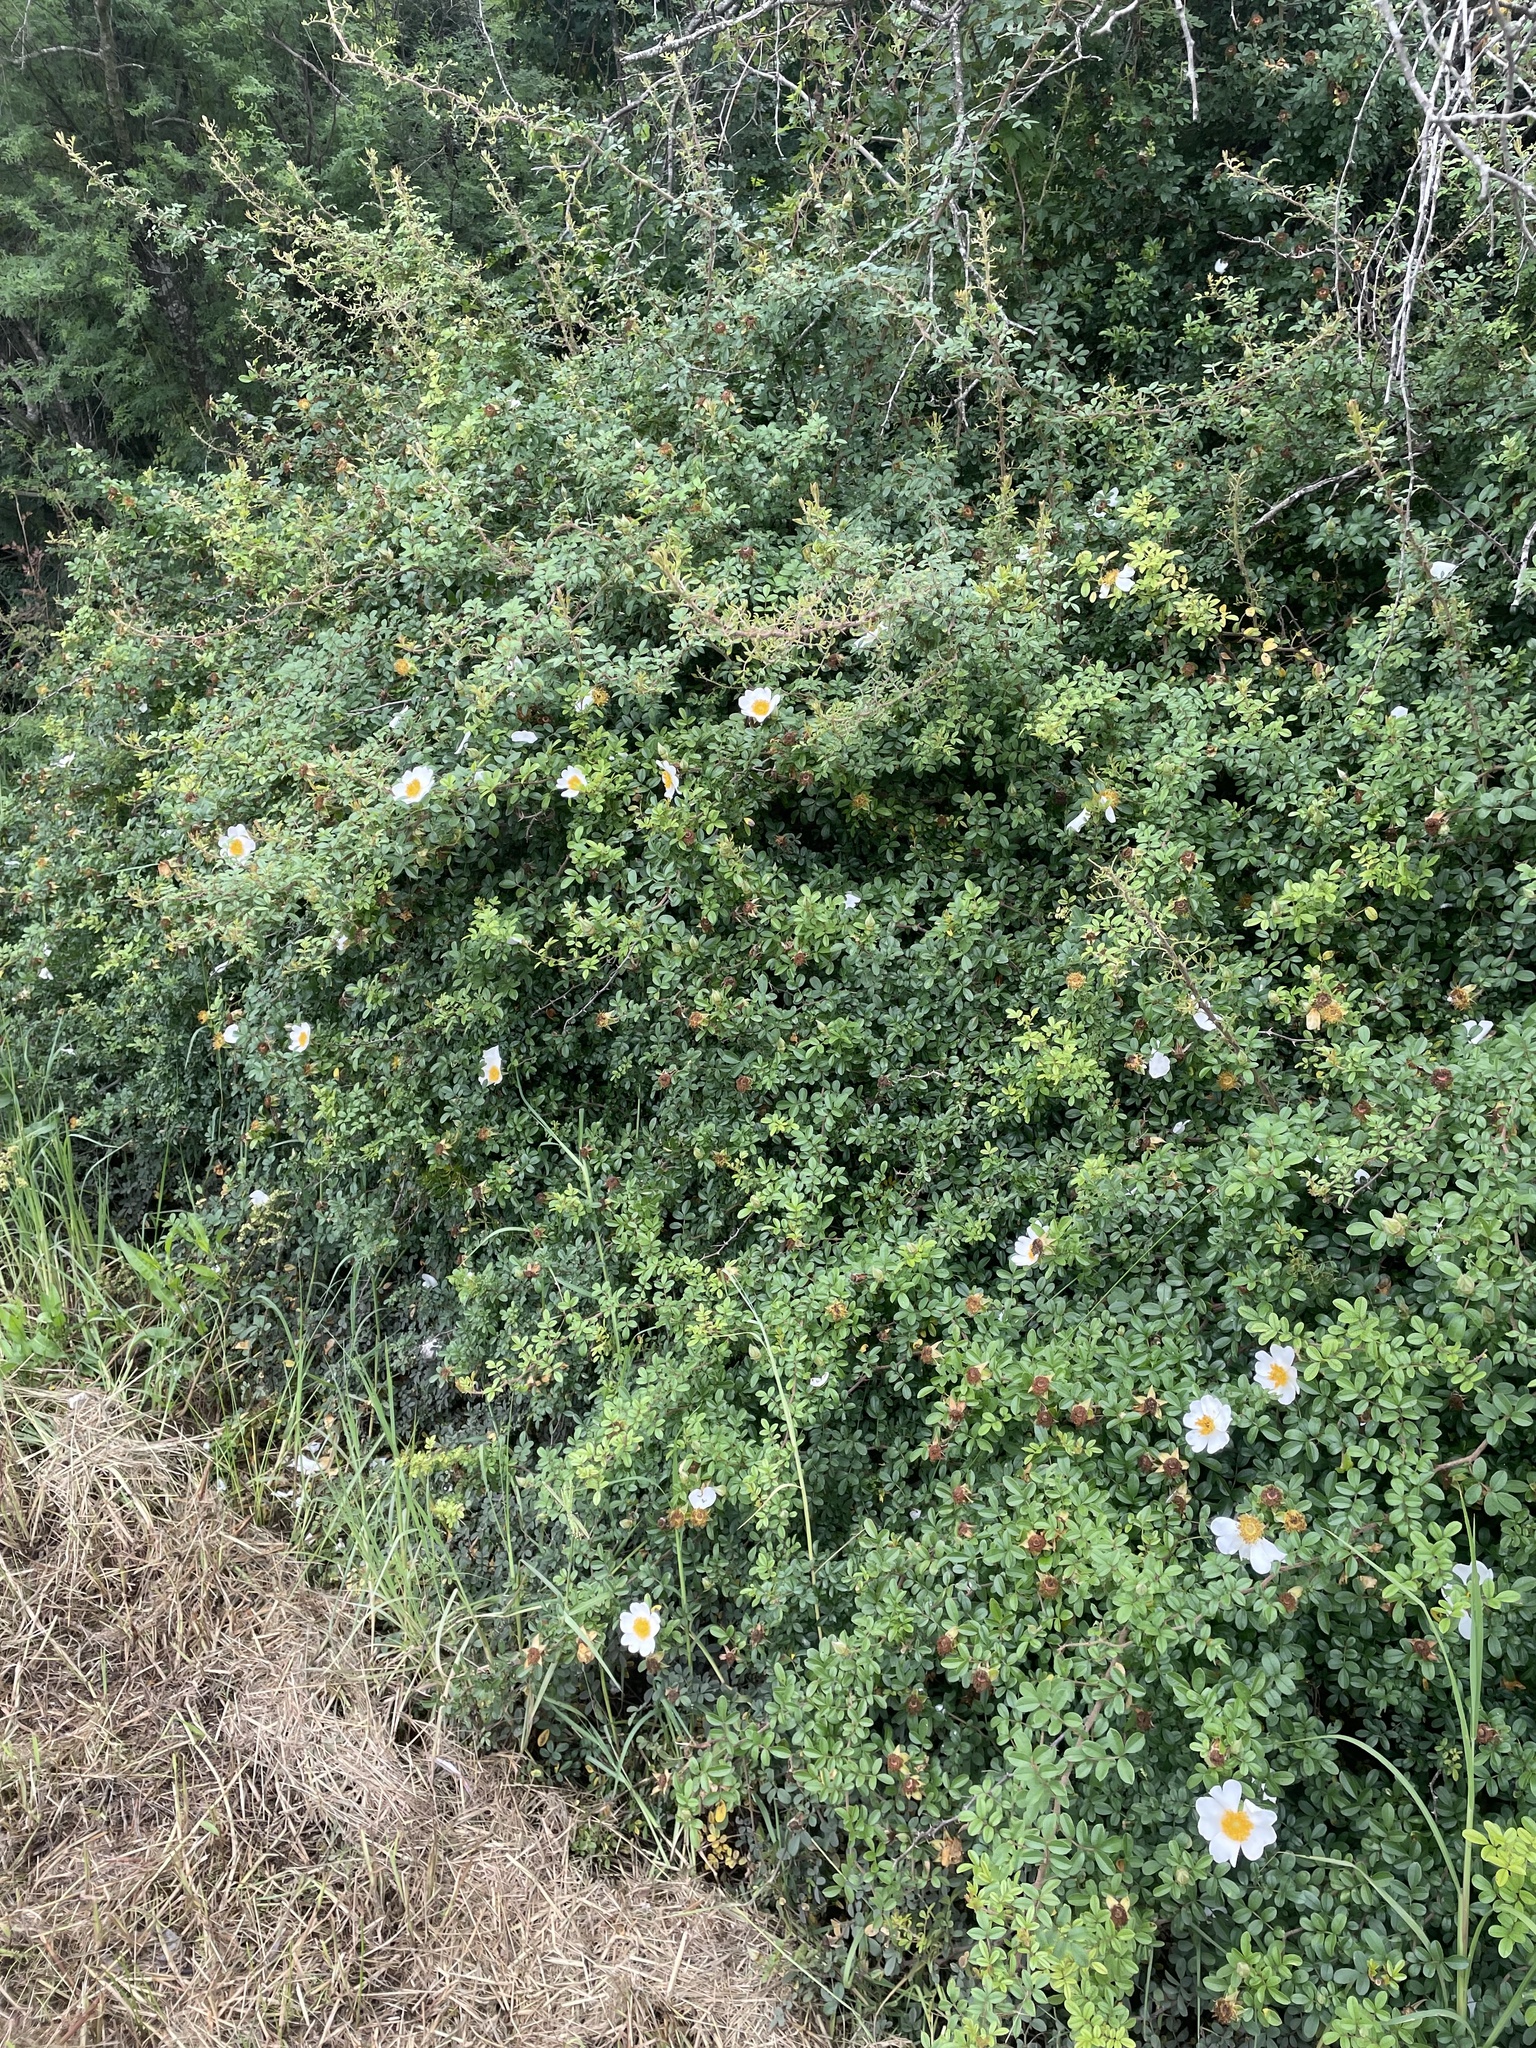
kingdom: Plantae
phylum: Tracheophyta
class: Magnoliopsida
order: Rosales
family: Rosaceae
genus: Rosa
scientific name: Rosa bracteata
